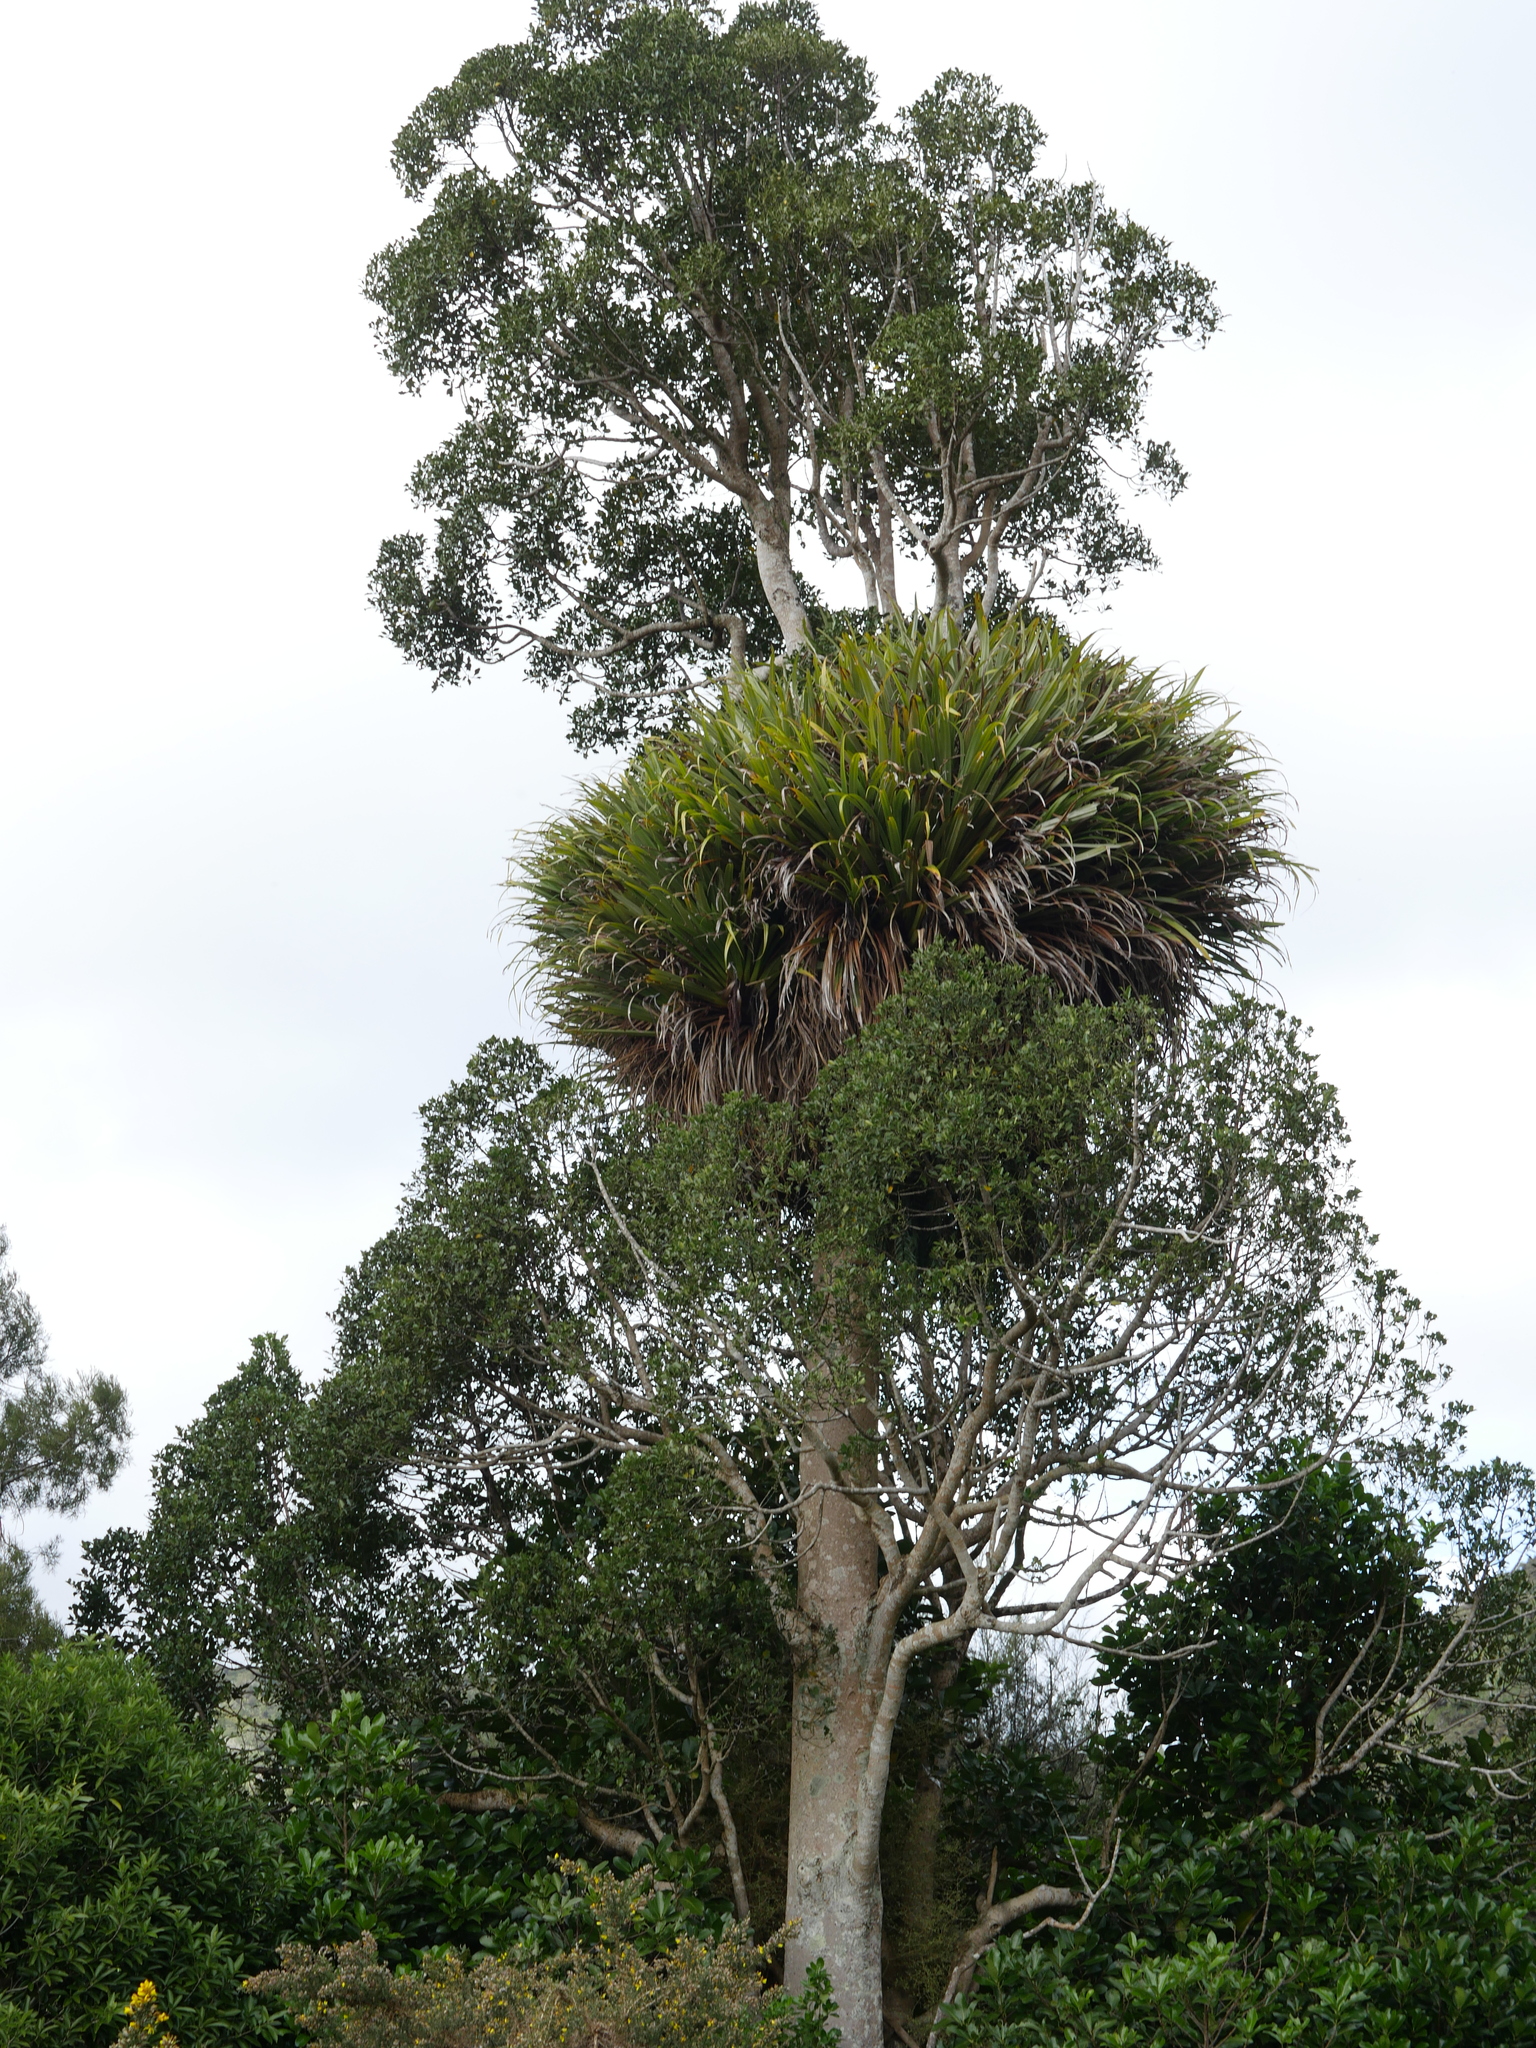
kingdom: Plantae
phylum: Tracheophyta
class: Liliopsida
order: Asparagales
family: Asteliaceae
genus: Astelia
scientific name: Astelia hastata
